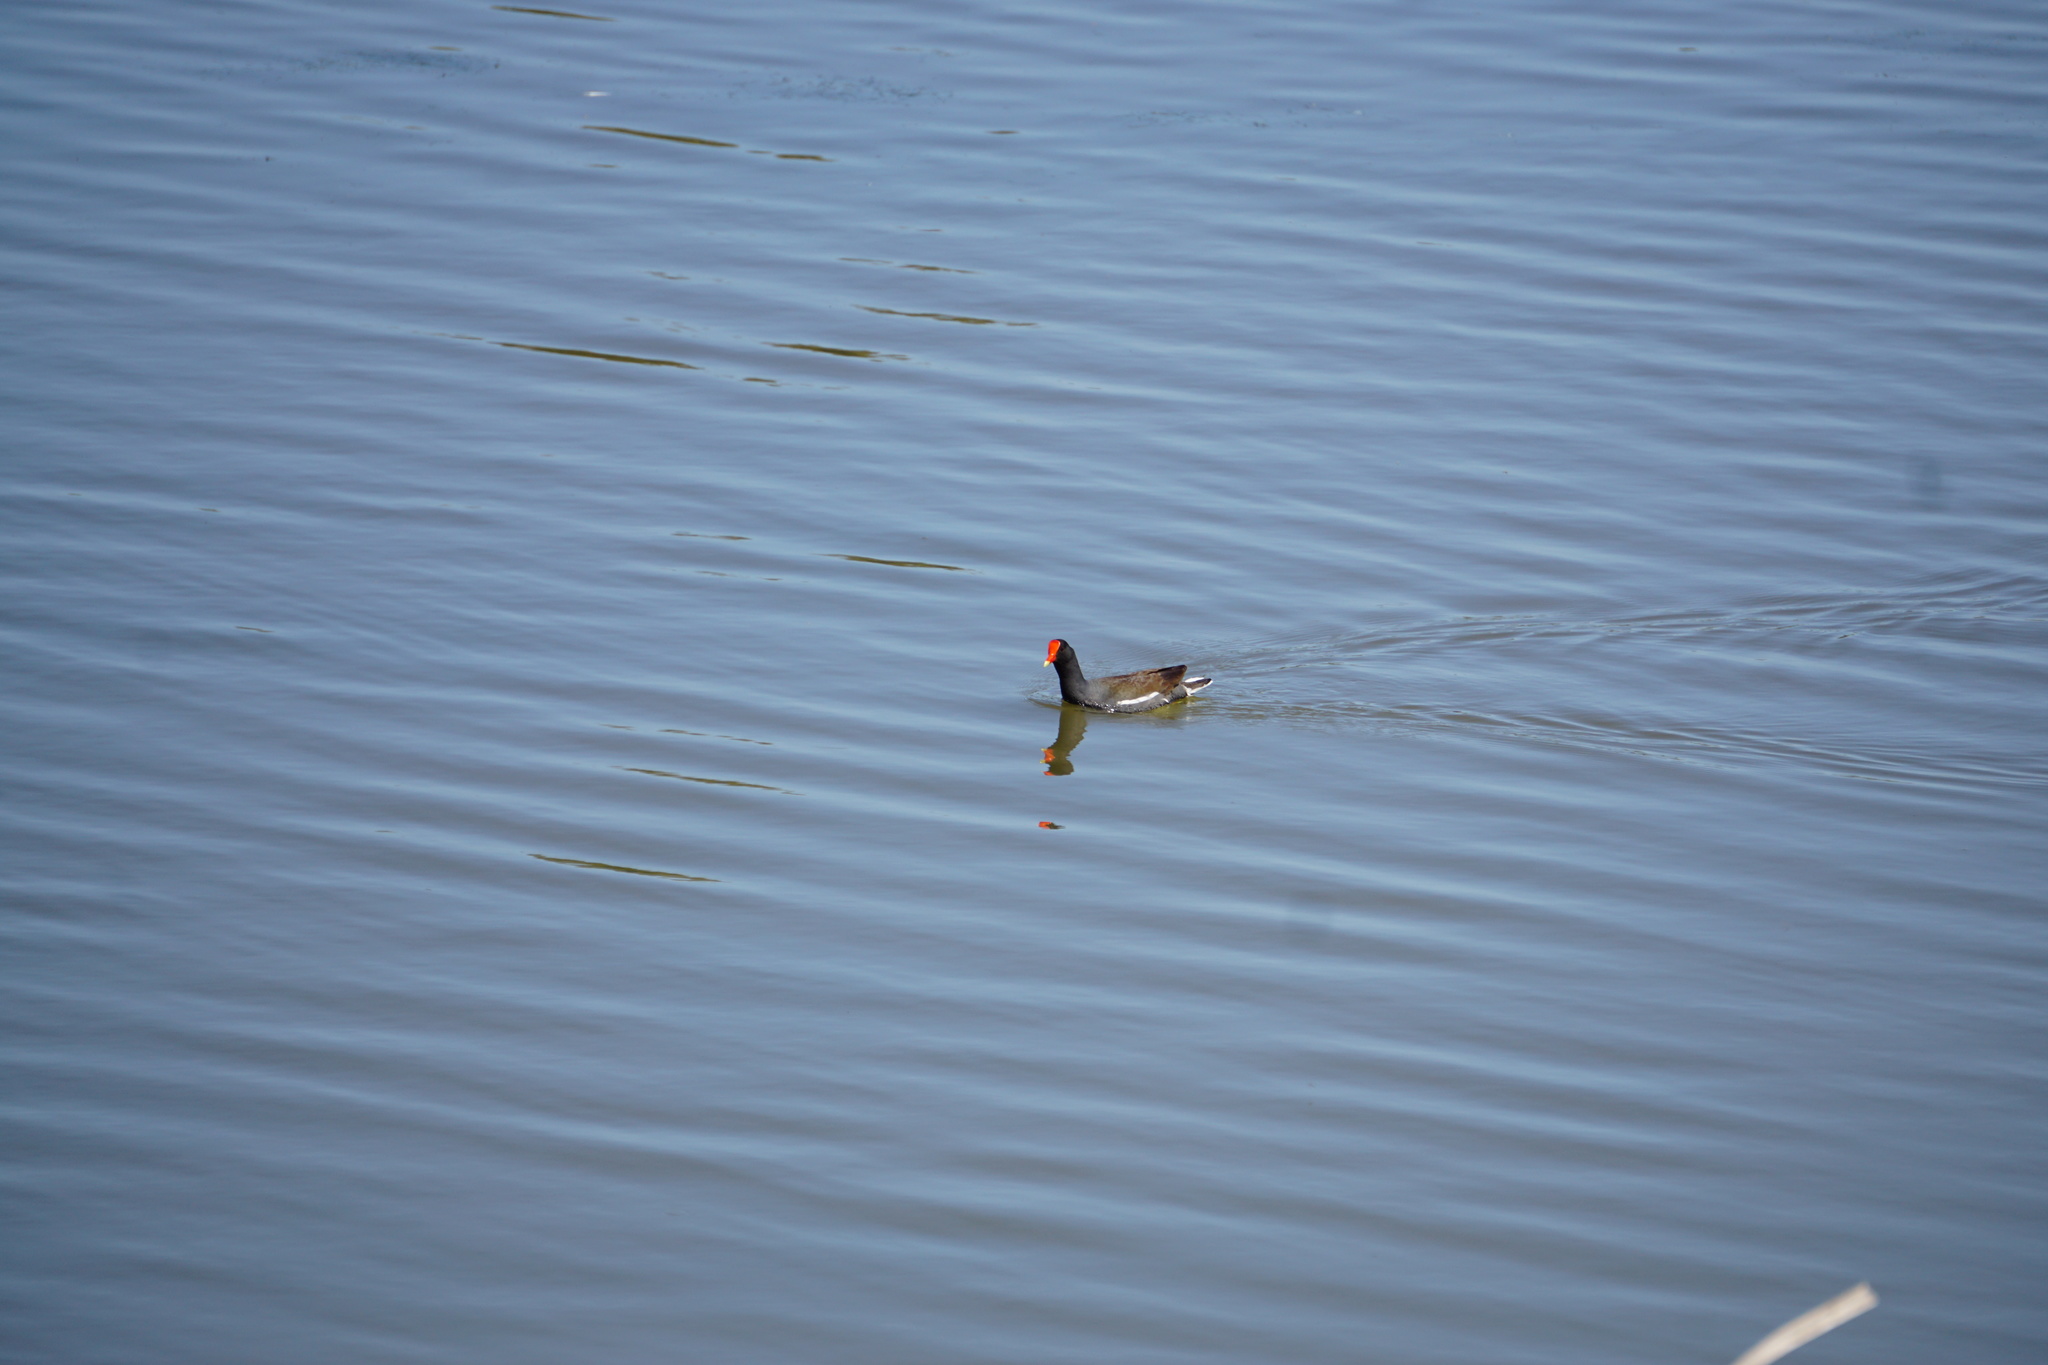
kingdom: Animalia
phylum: Chordata
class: Aves
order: Gruiformes
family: Rallidae
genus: Gallinula
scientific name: Gallinula chloropus
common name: Common moorhen
